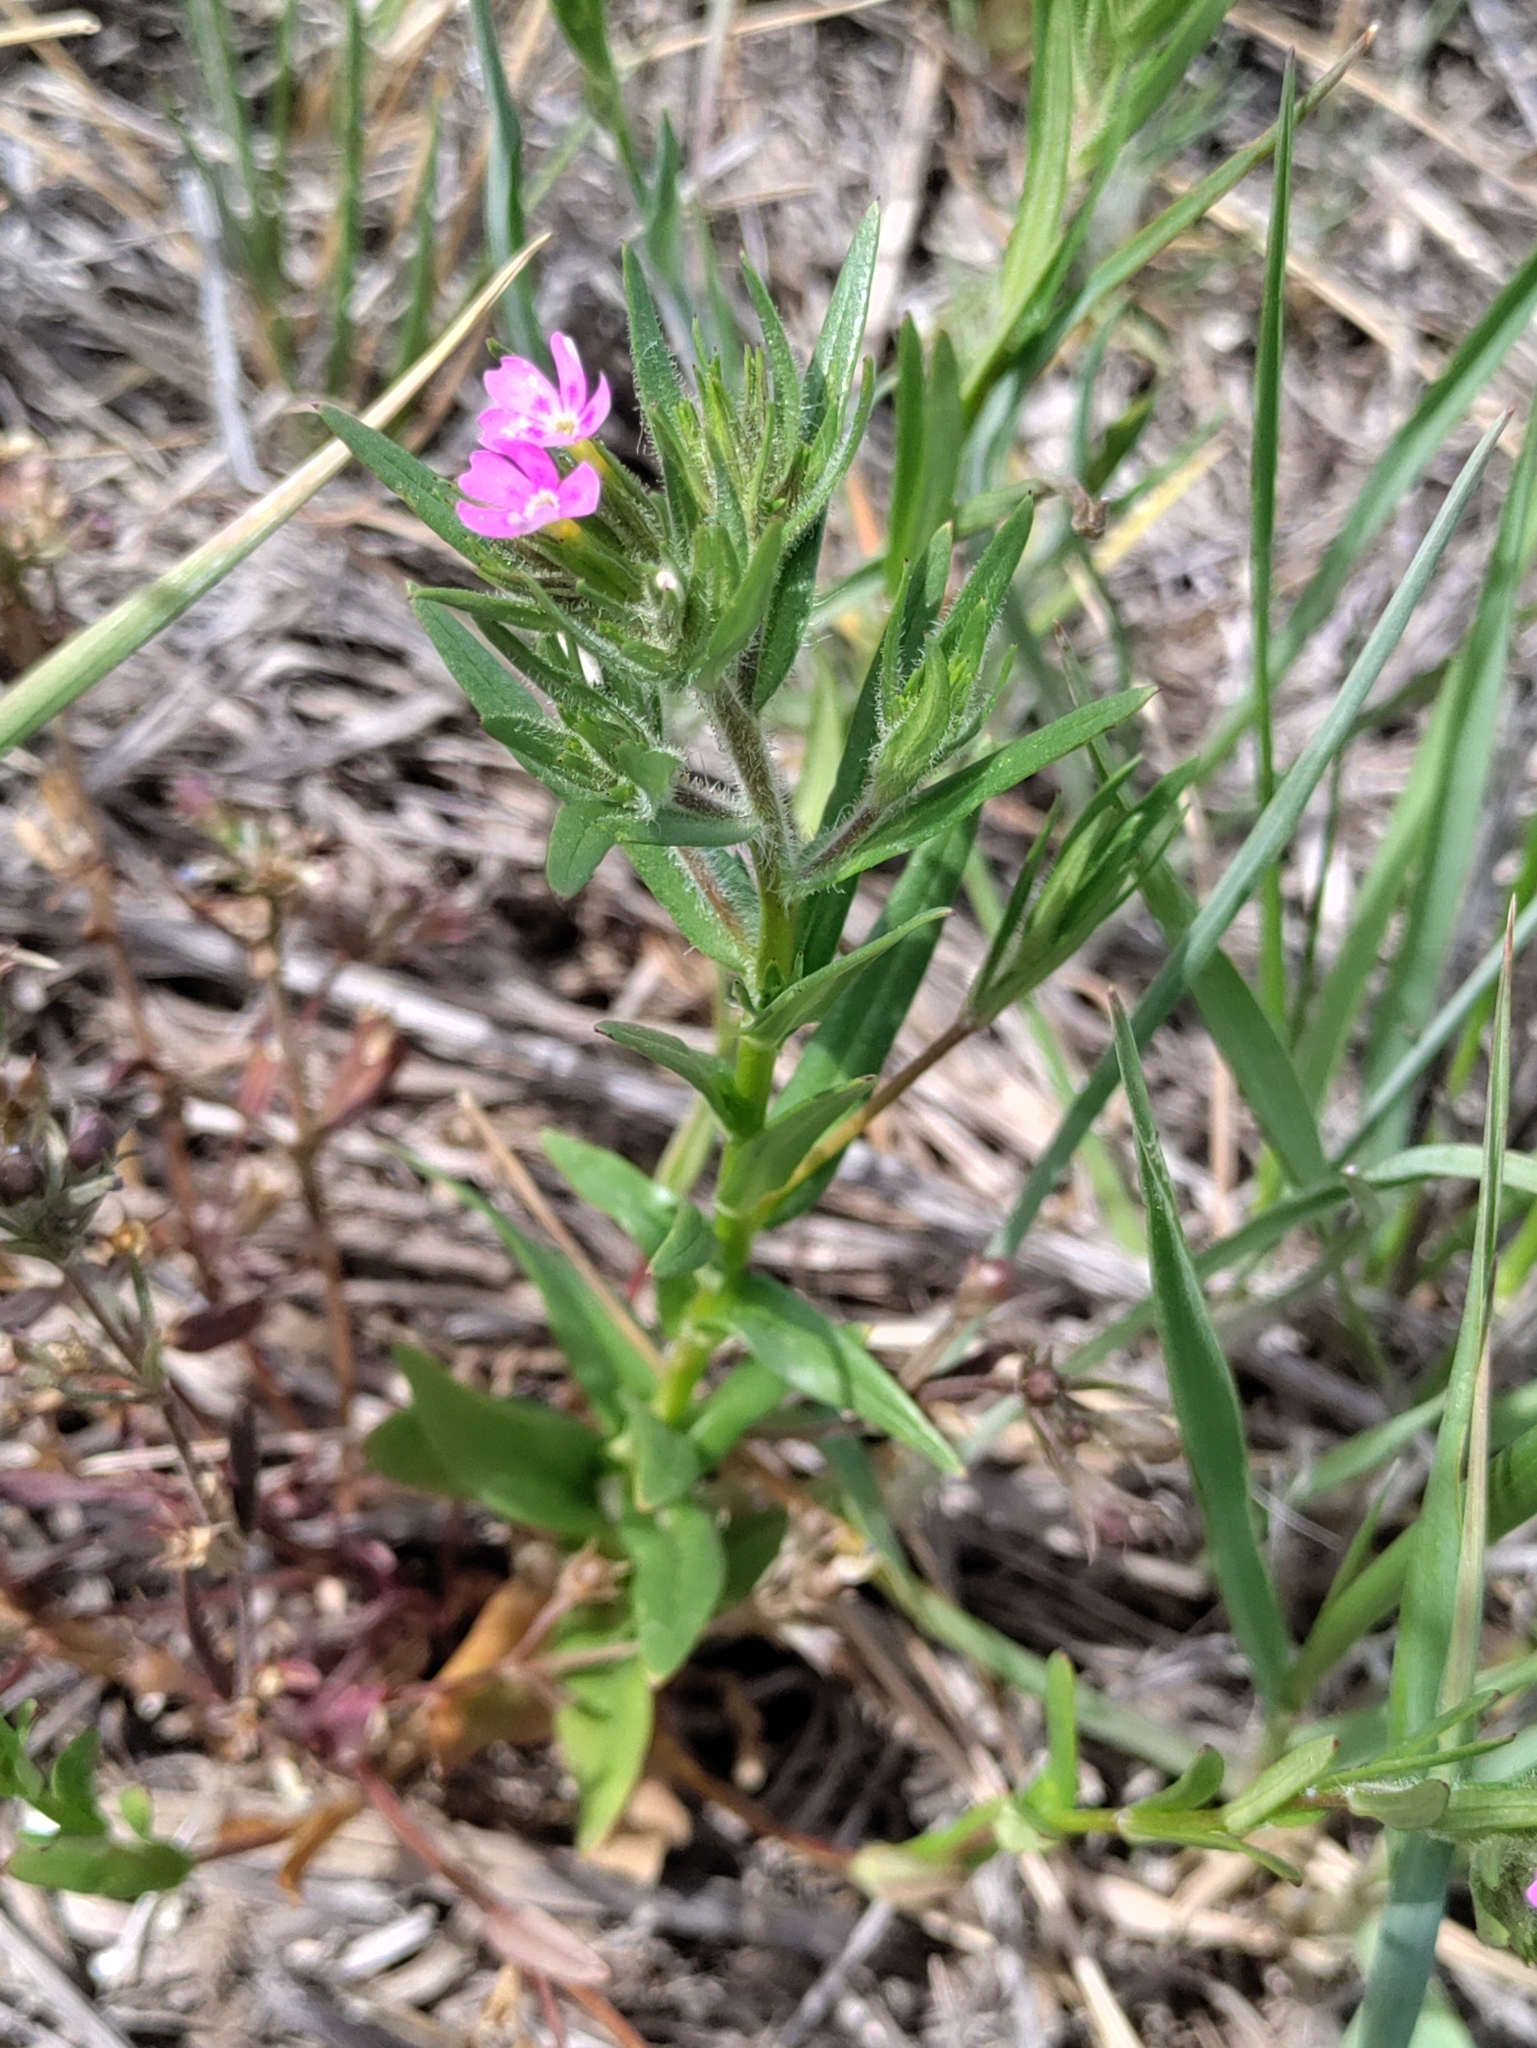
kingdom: Plantae
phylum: Tracheophyta
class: Magnoliopsida
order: Ericales
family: Polemoniaceae
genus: Phlox
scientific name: Phlox gracilis
